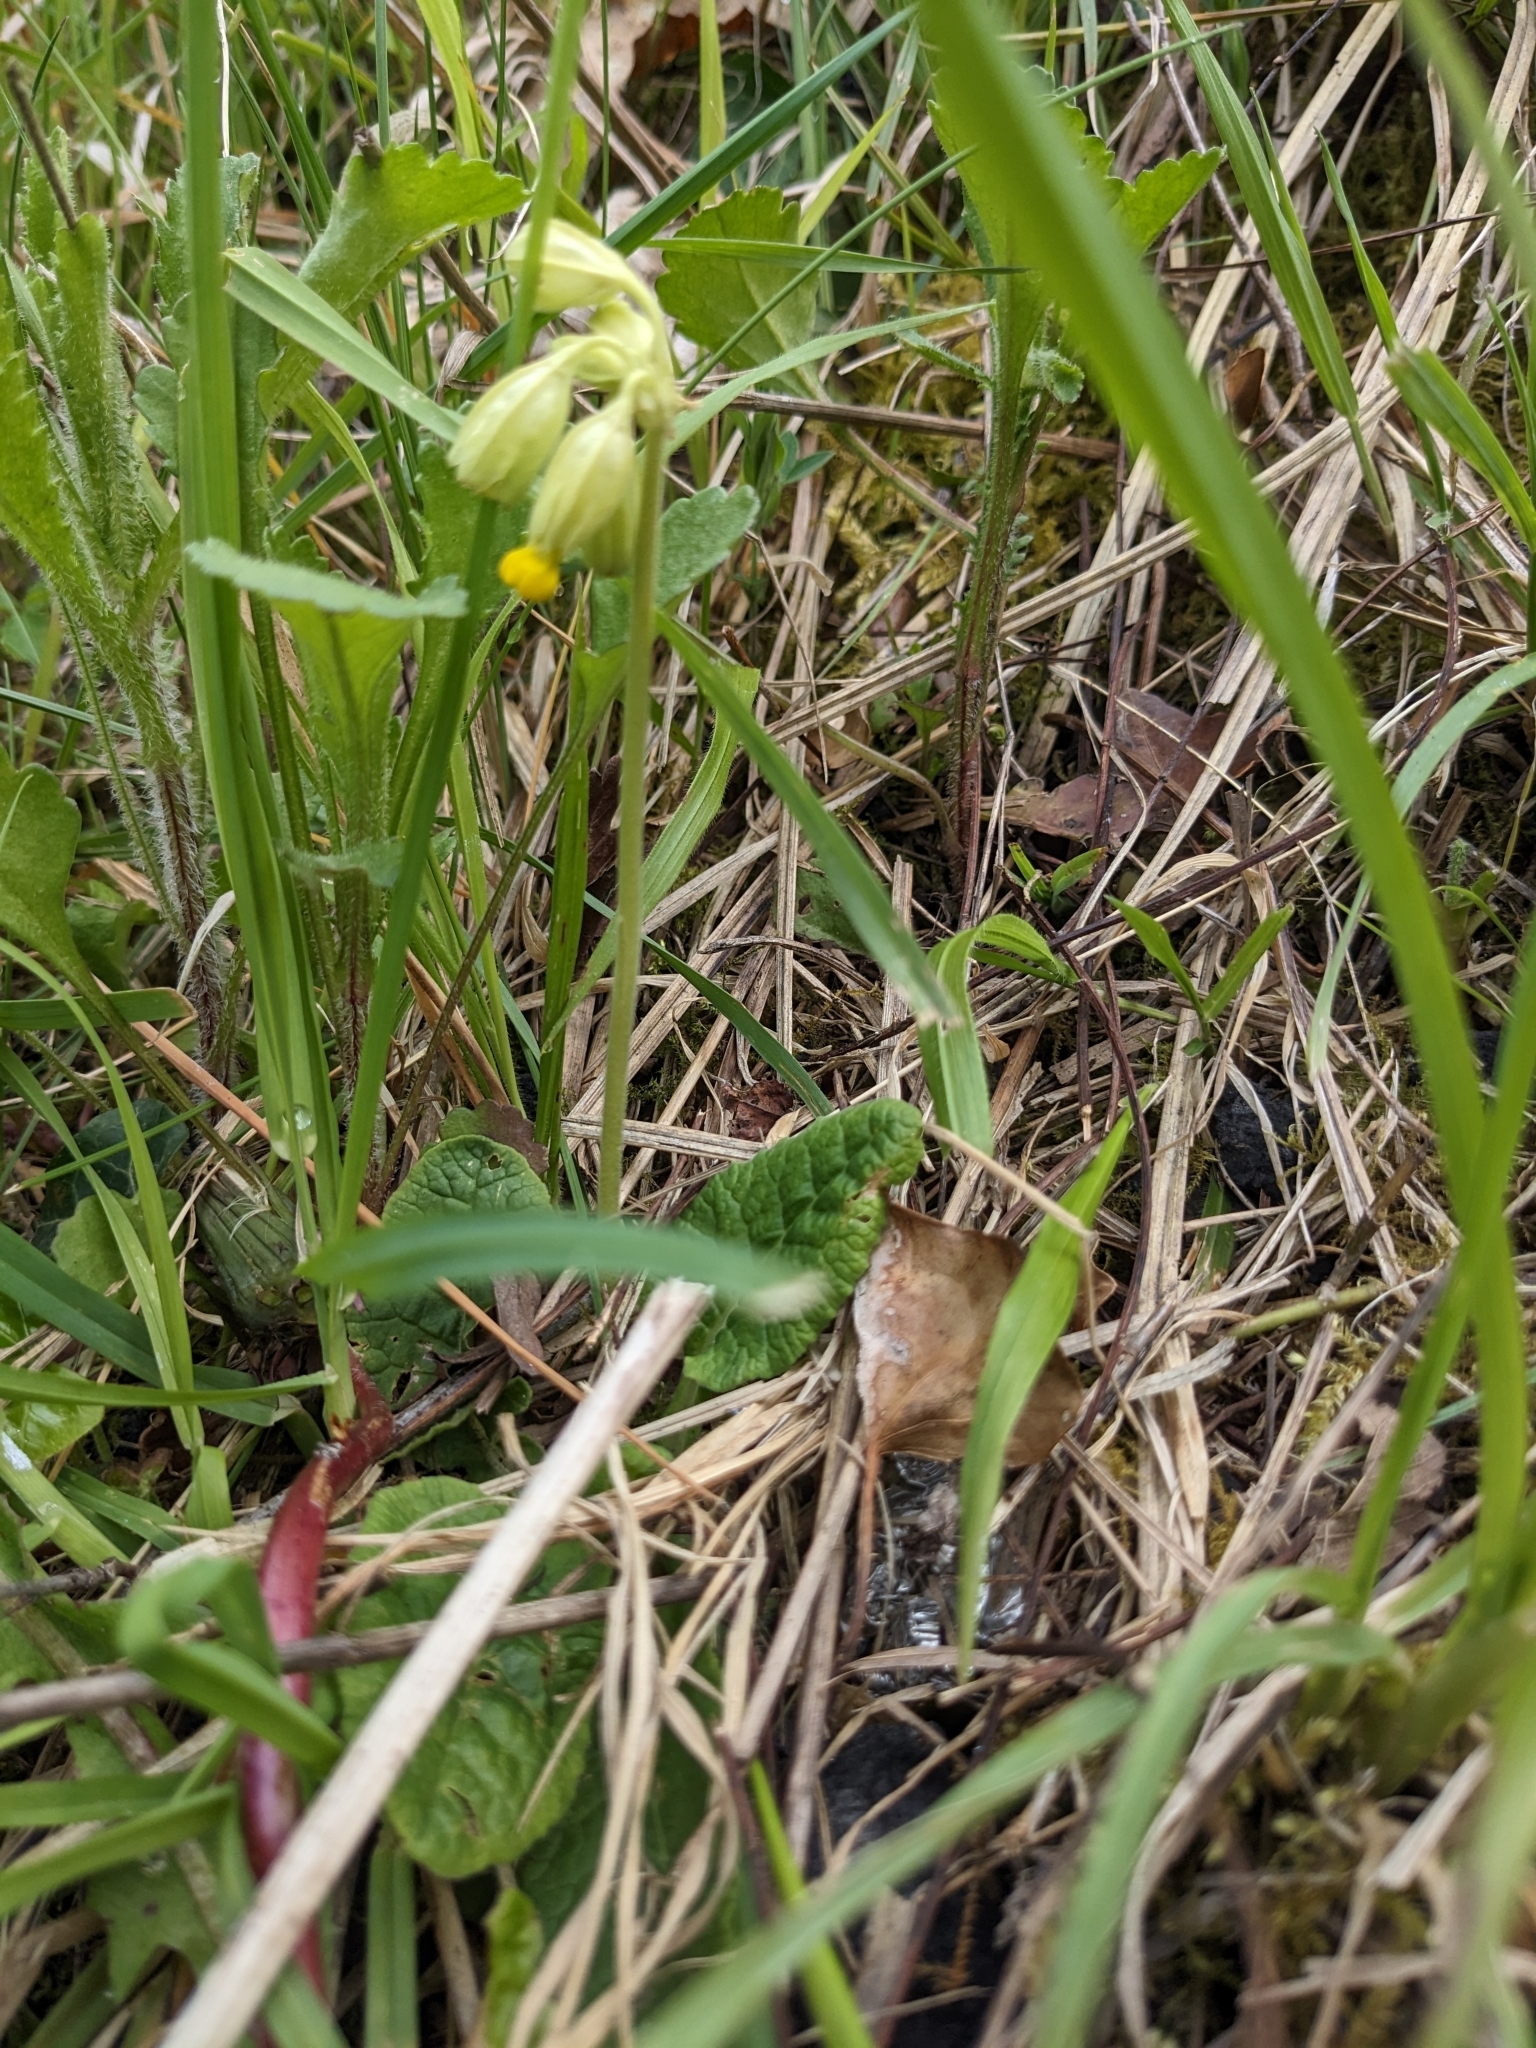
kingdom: Plantae
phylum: Tracheophyta
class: Magnoliopsida
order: Ericales
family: Primulaceae
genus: Primula
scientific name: Primula veris
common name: Cowslip
